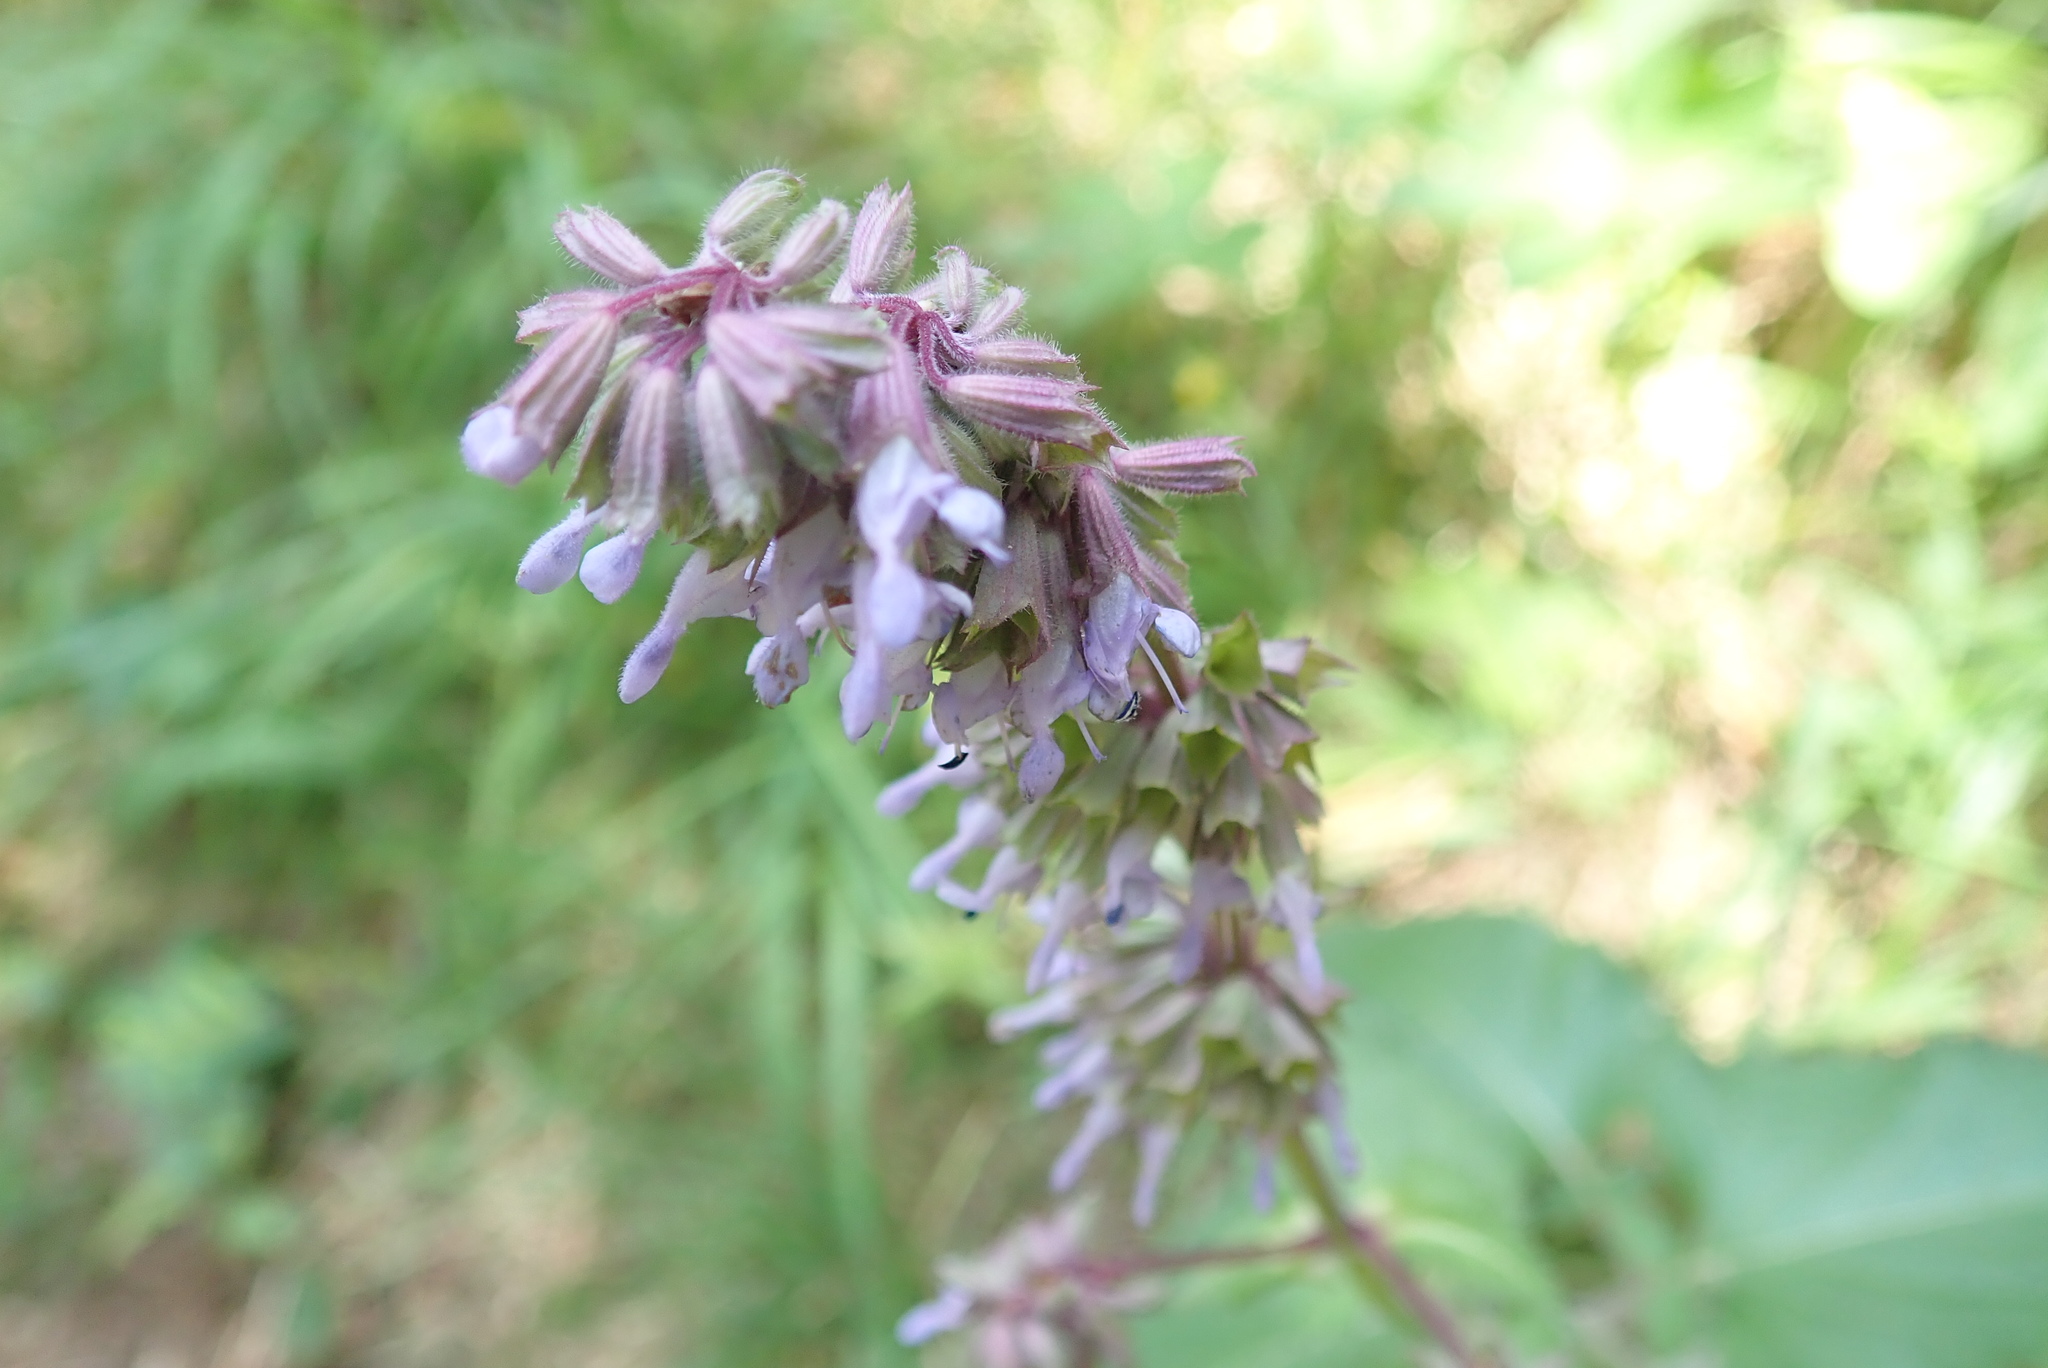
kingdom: Plantae
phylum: Tracheophyta
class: Magnoliopsida
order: Lamiales
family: Lamiaceae
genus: Salvia
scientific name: Salvia verticillata
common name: Whorled clary
